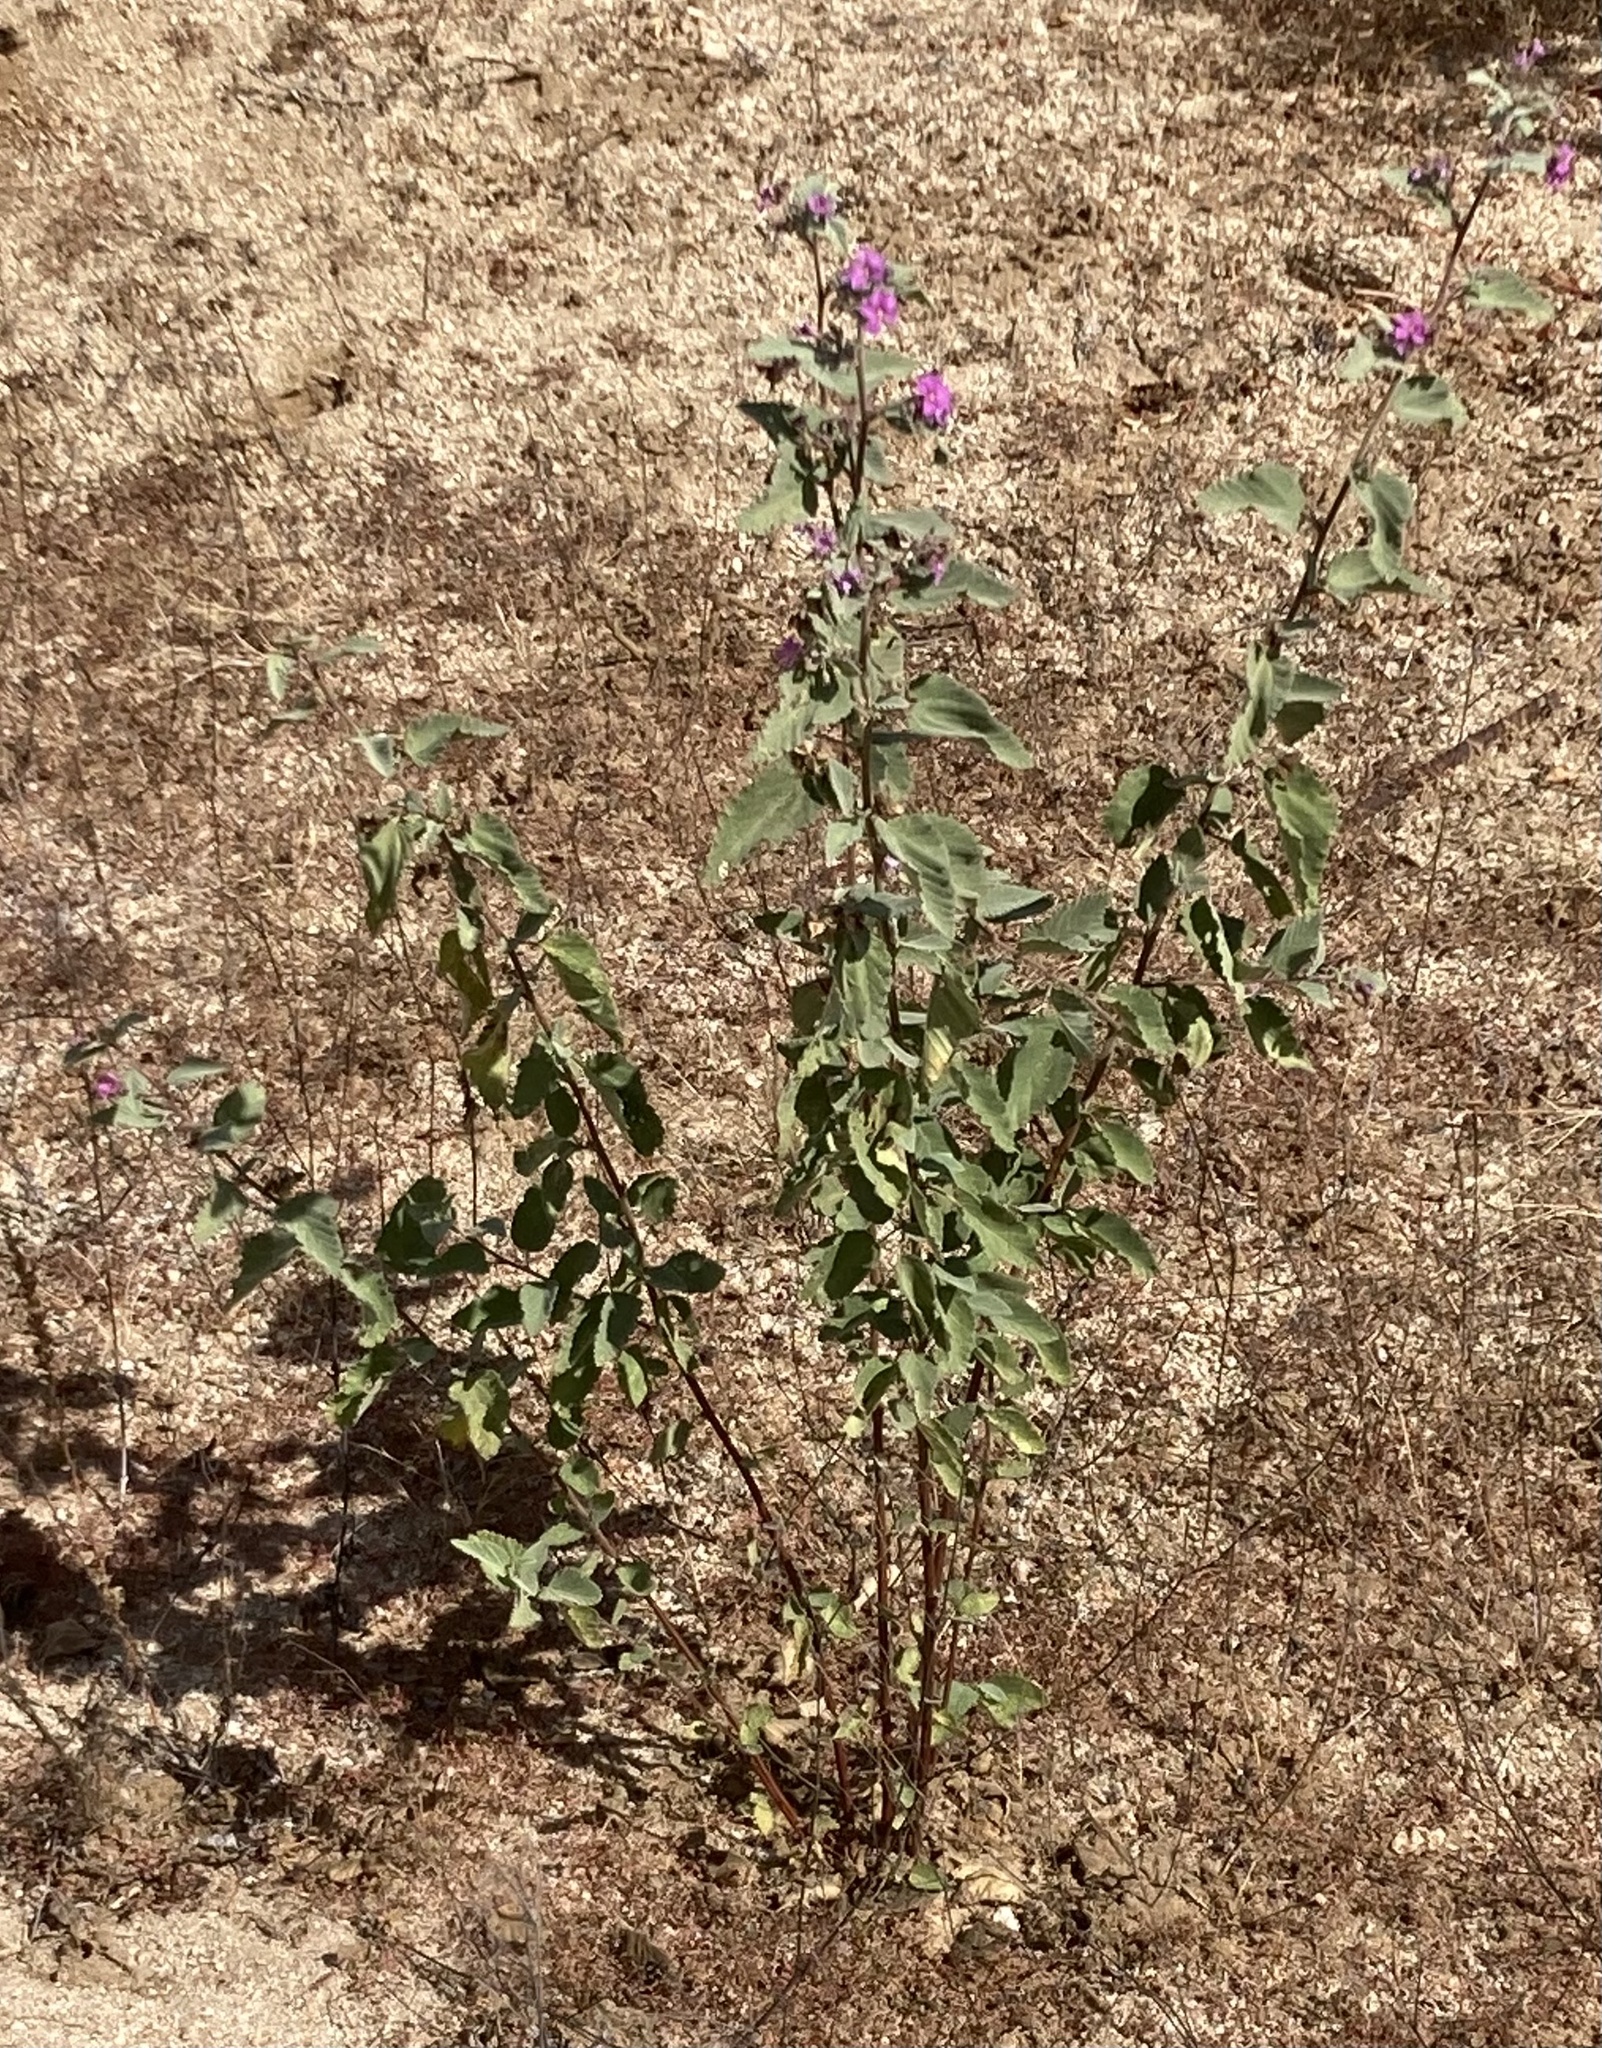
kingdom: Plantae
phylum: Tracheophyta
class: Magnoliopsida
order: Malvales
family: Malvaceae
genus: Melochia
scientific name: Melochia tomentosa
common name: Black torch
